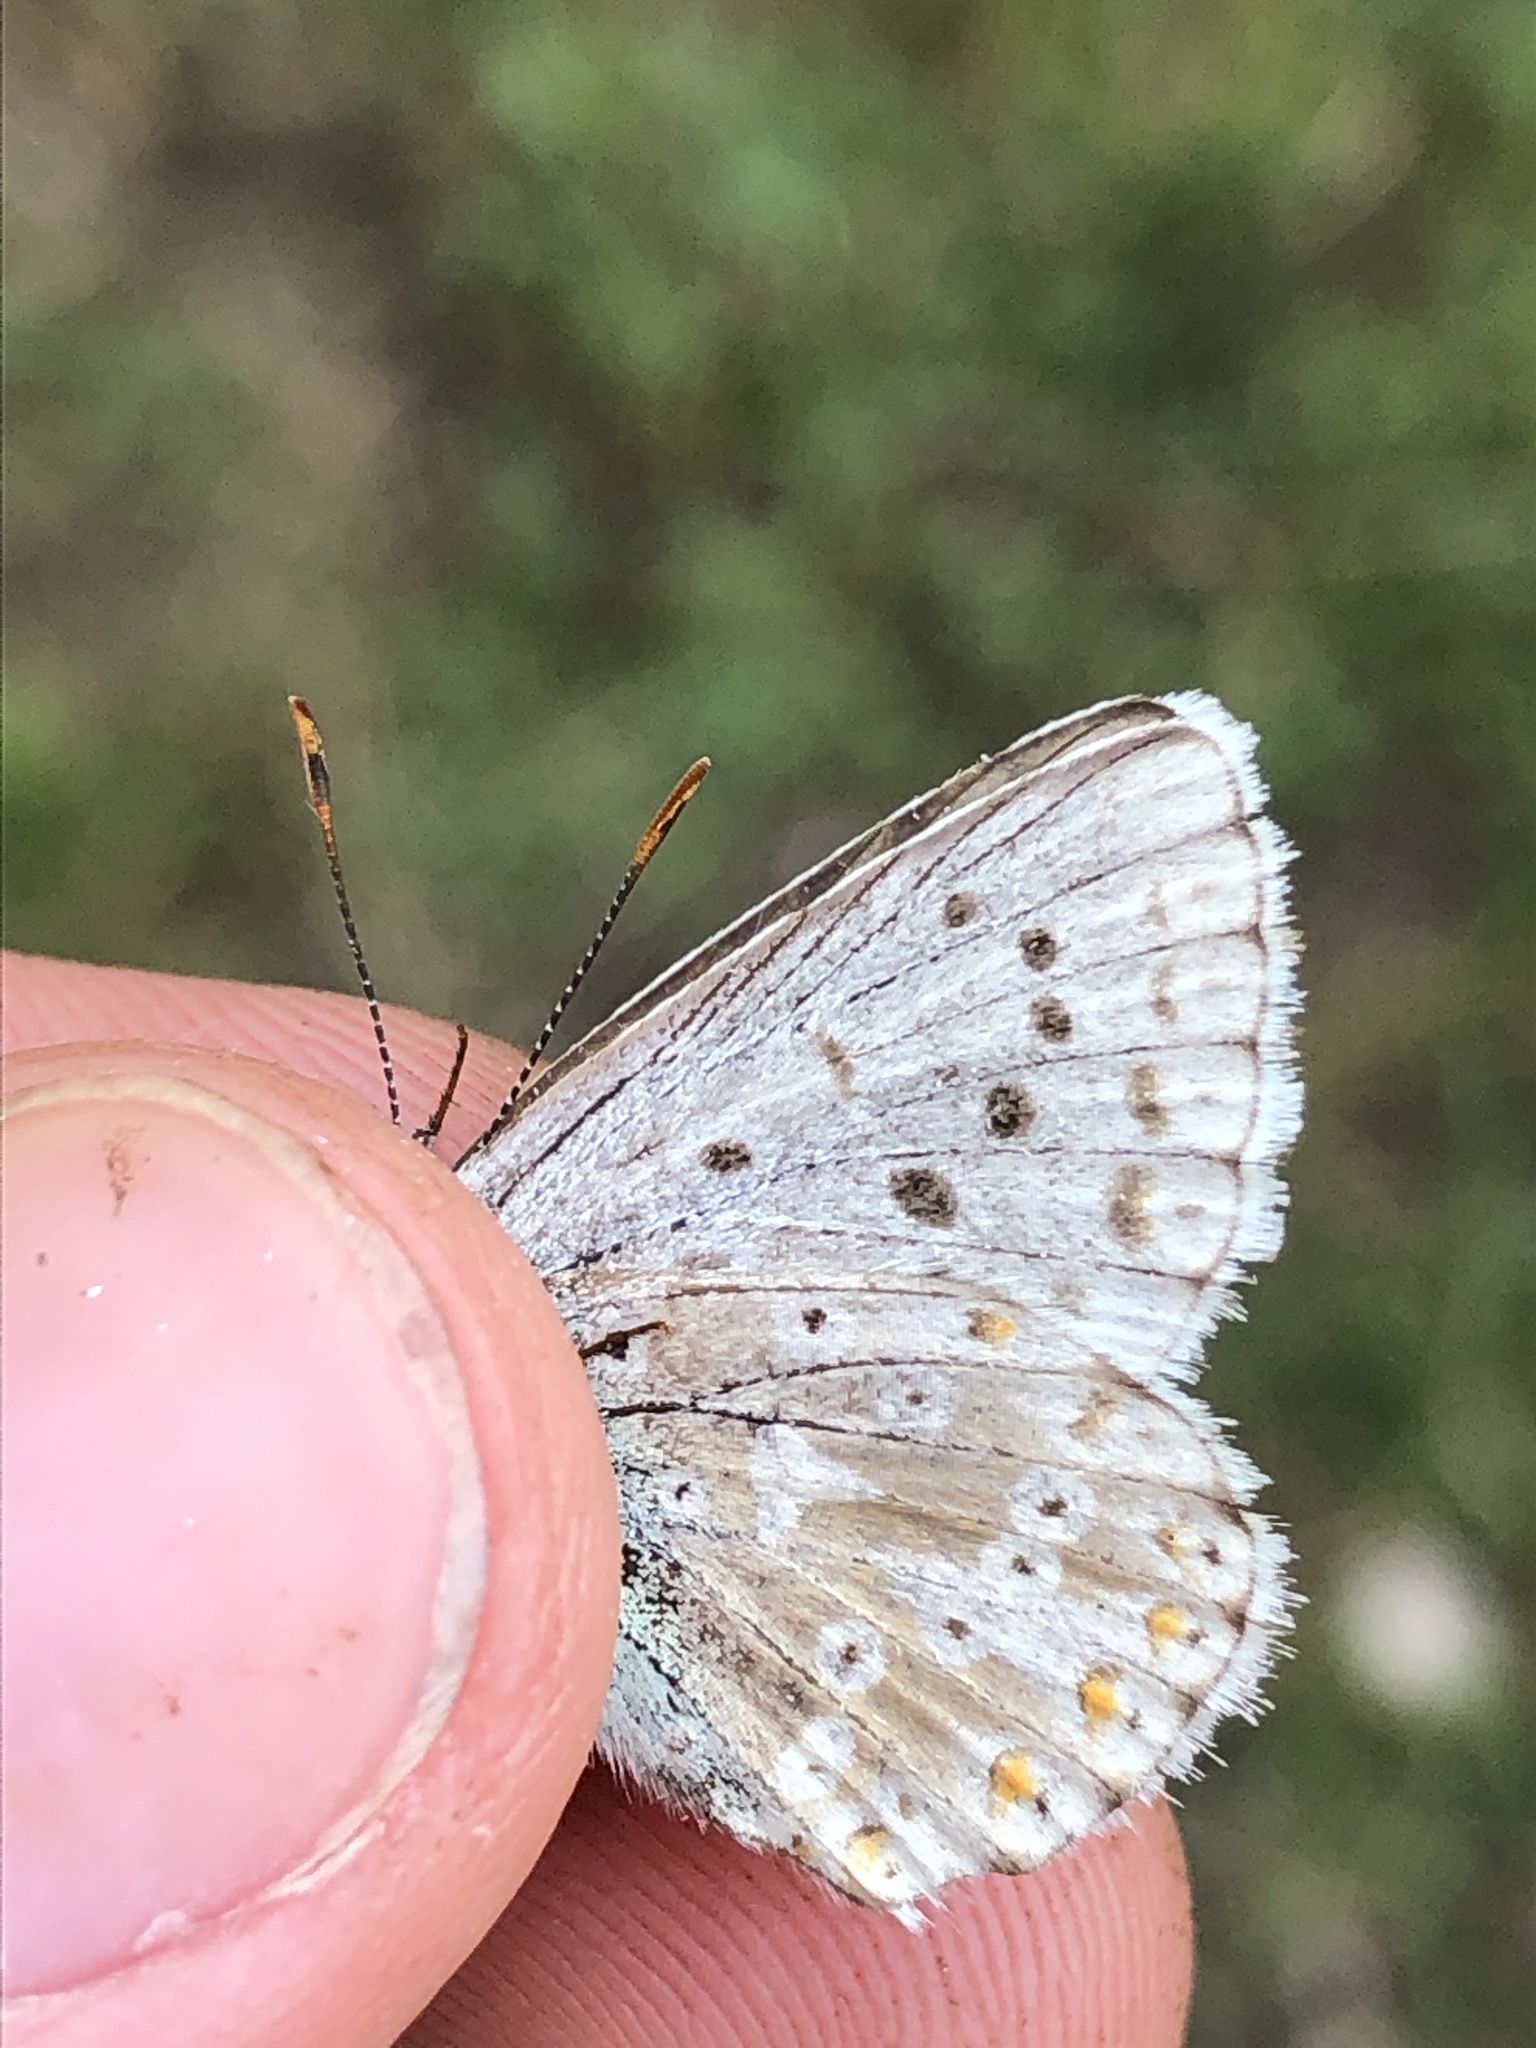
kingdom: Animalia
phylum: Arthropoda
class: Insecta
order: Lepidoptera
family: Lycaenidae
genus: Lysandra
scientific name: Lysandra coridon
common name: Chalkhill blue
